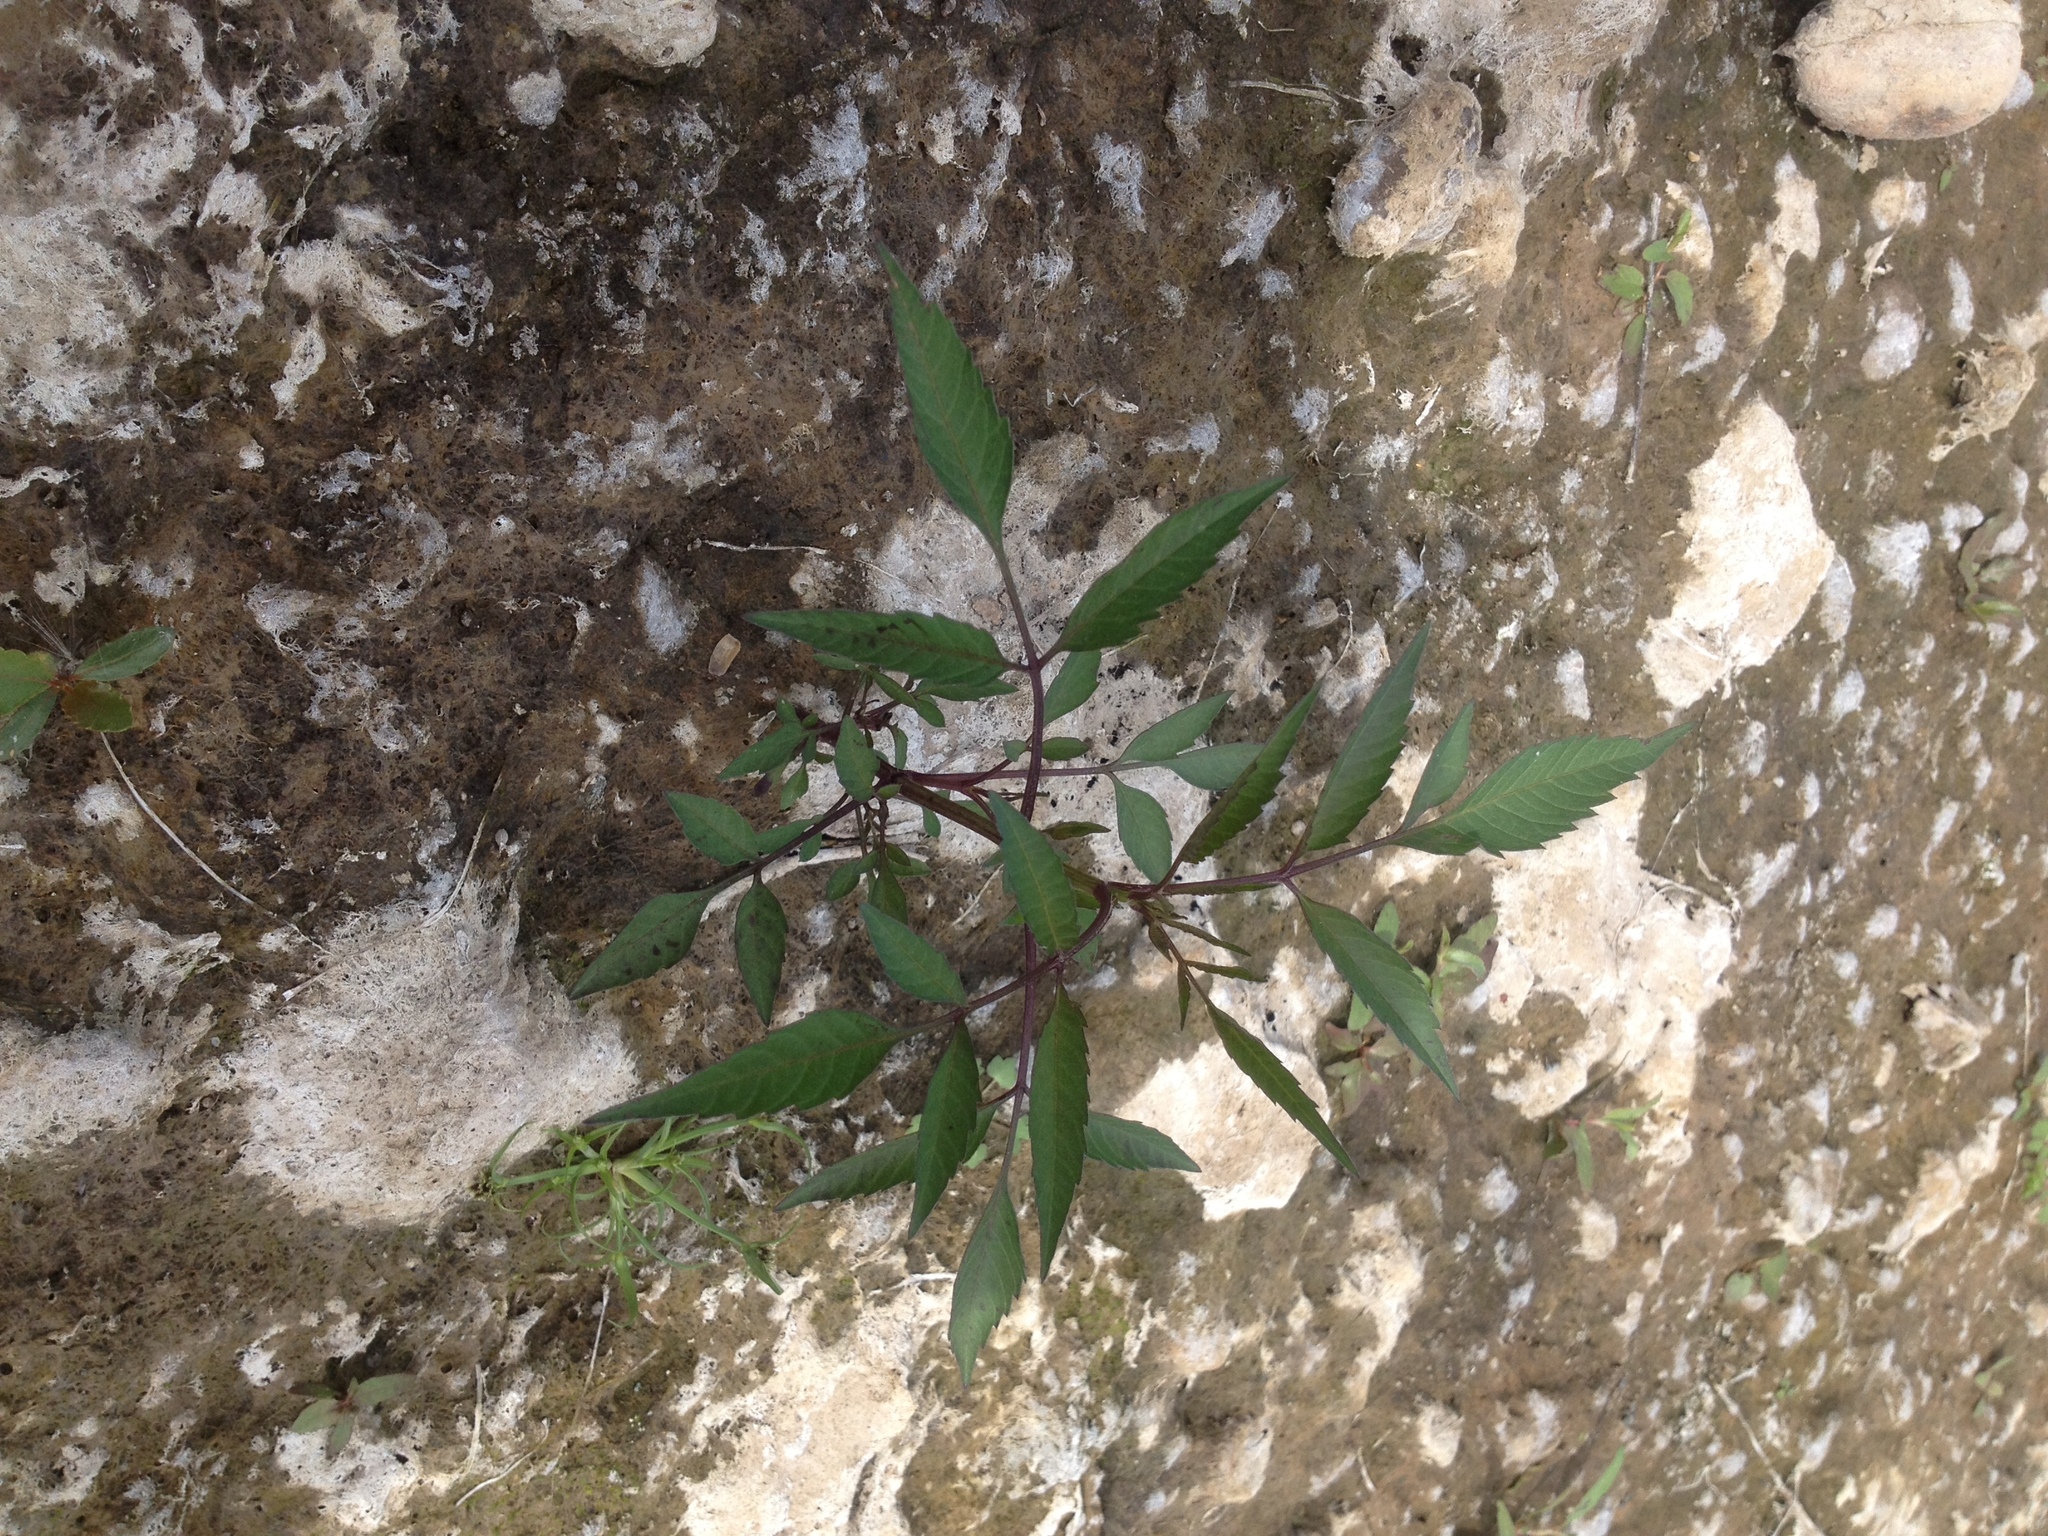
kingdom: Plantae
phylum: Tracheophyta
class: Magnoliopsida
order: Asterales
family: Asteraceae
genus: Bidens
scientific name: Bidens frondosa
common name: Beggarticks
